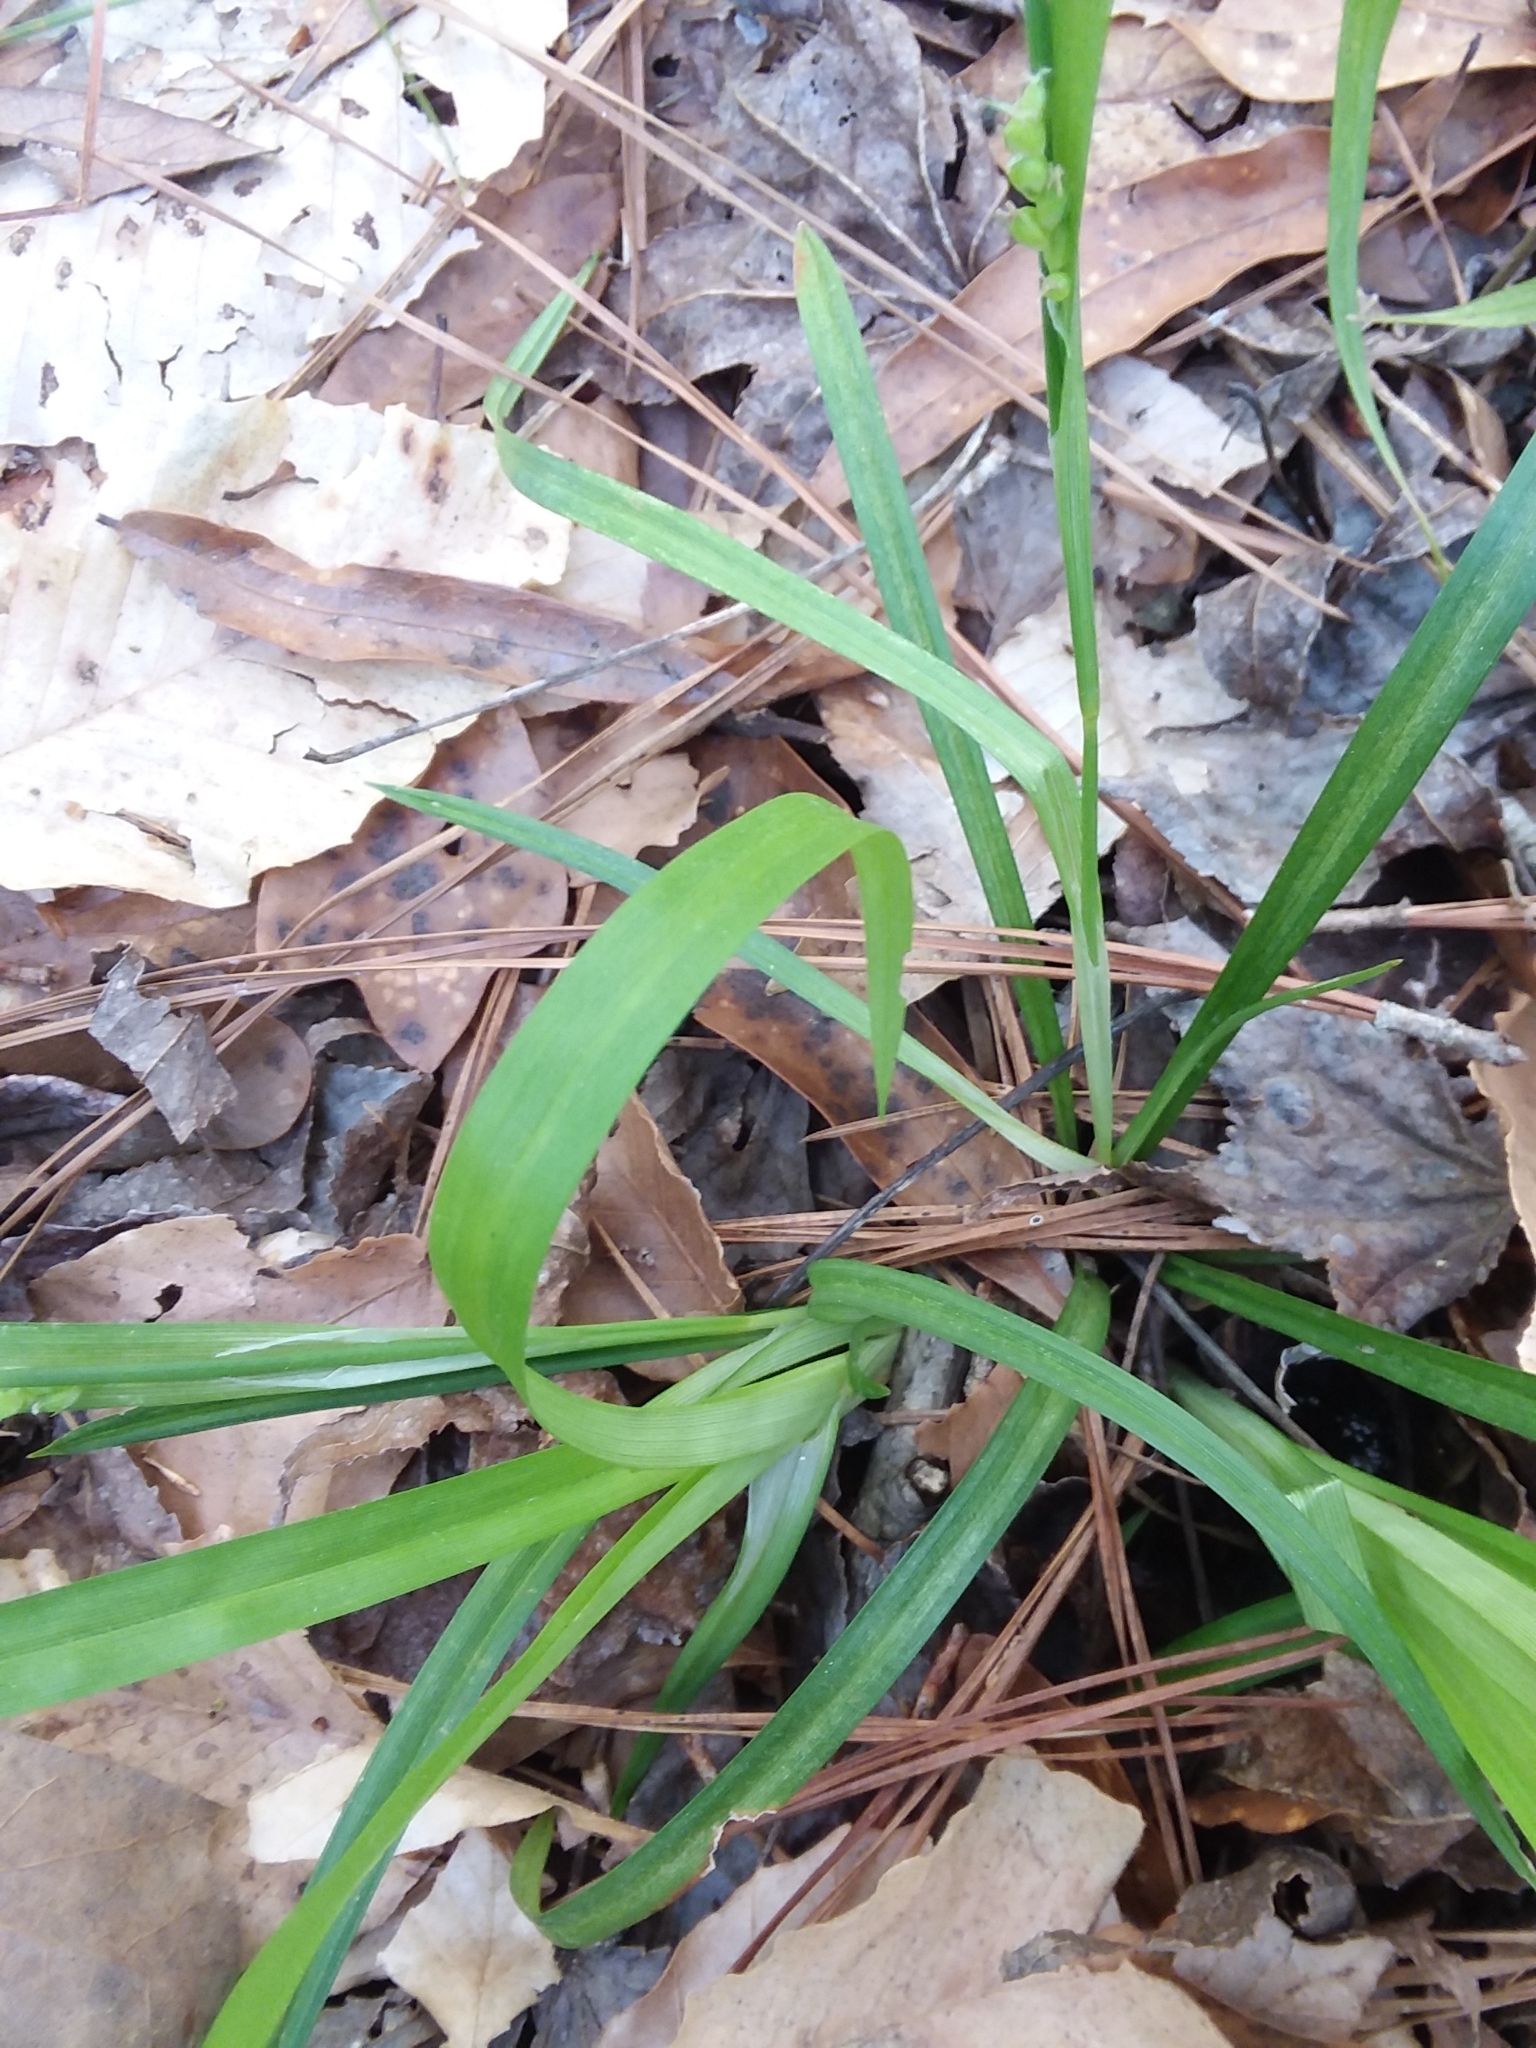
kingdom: Plantae
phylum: Tracheophyta
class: Liliopsida
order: Poales
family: Cyperaceae
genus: Carex
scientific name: Carex flaccosperma
